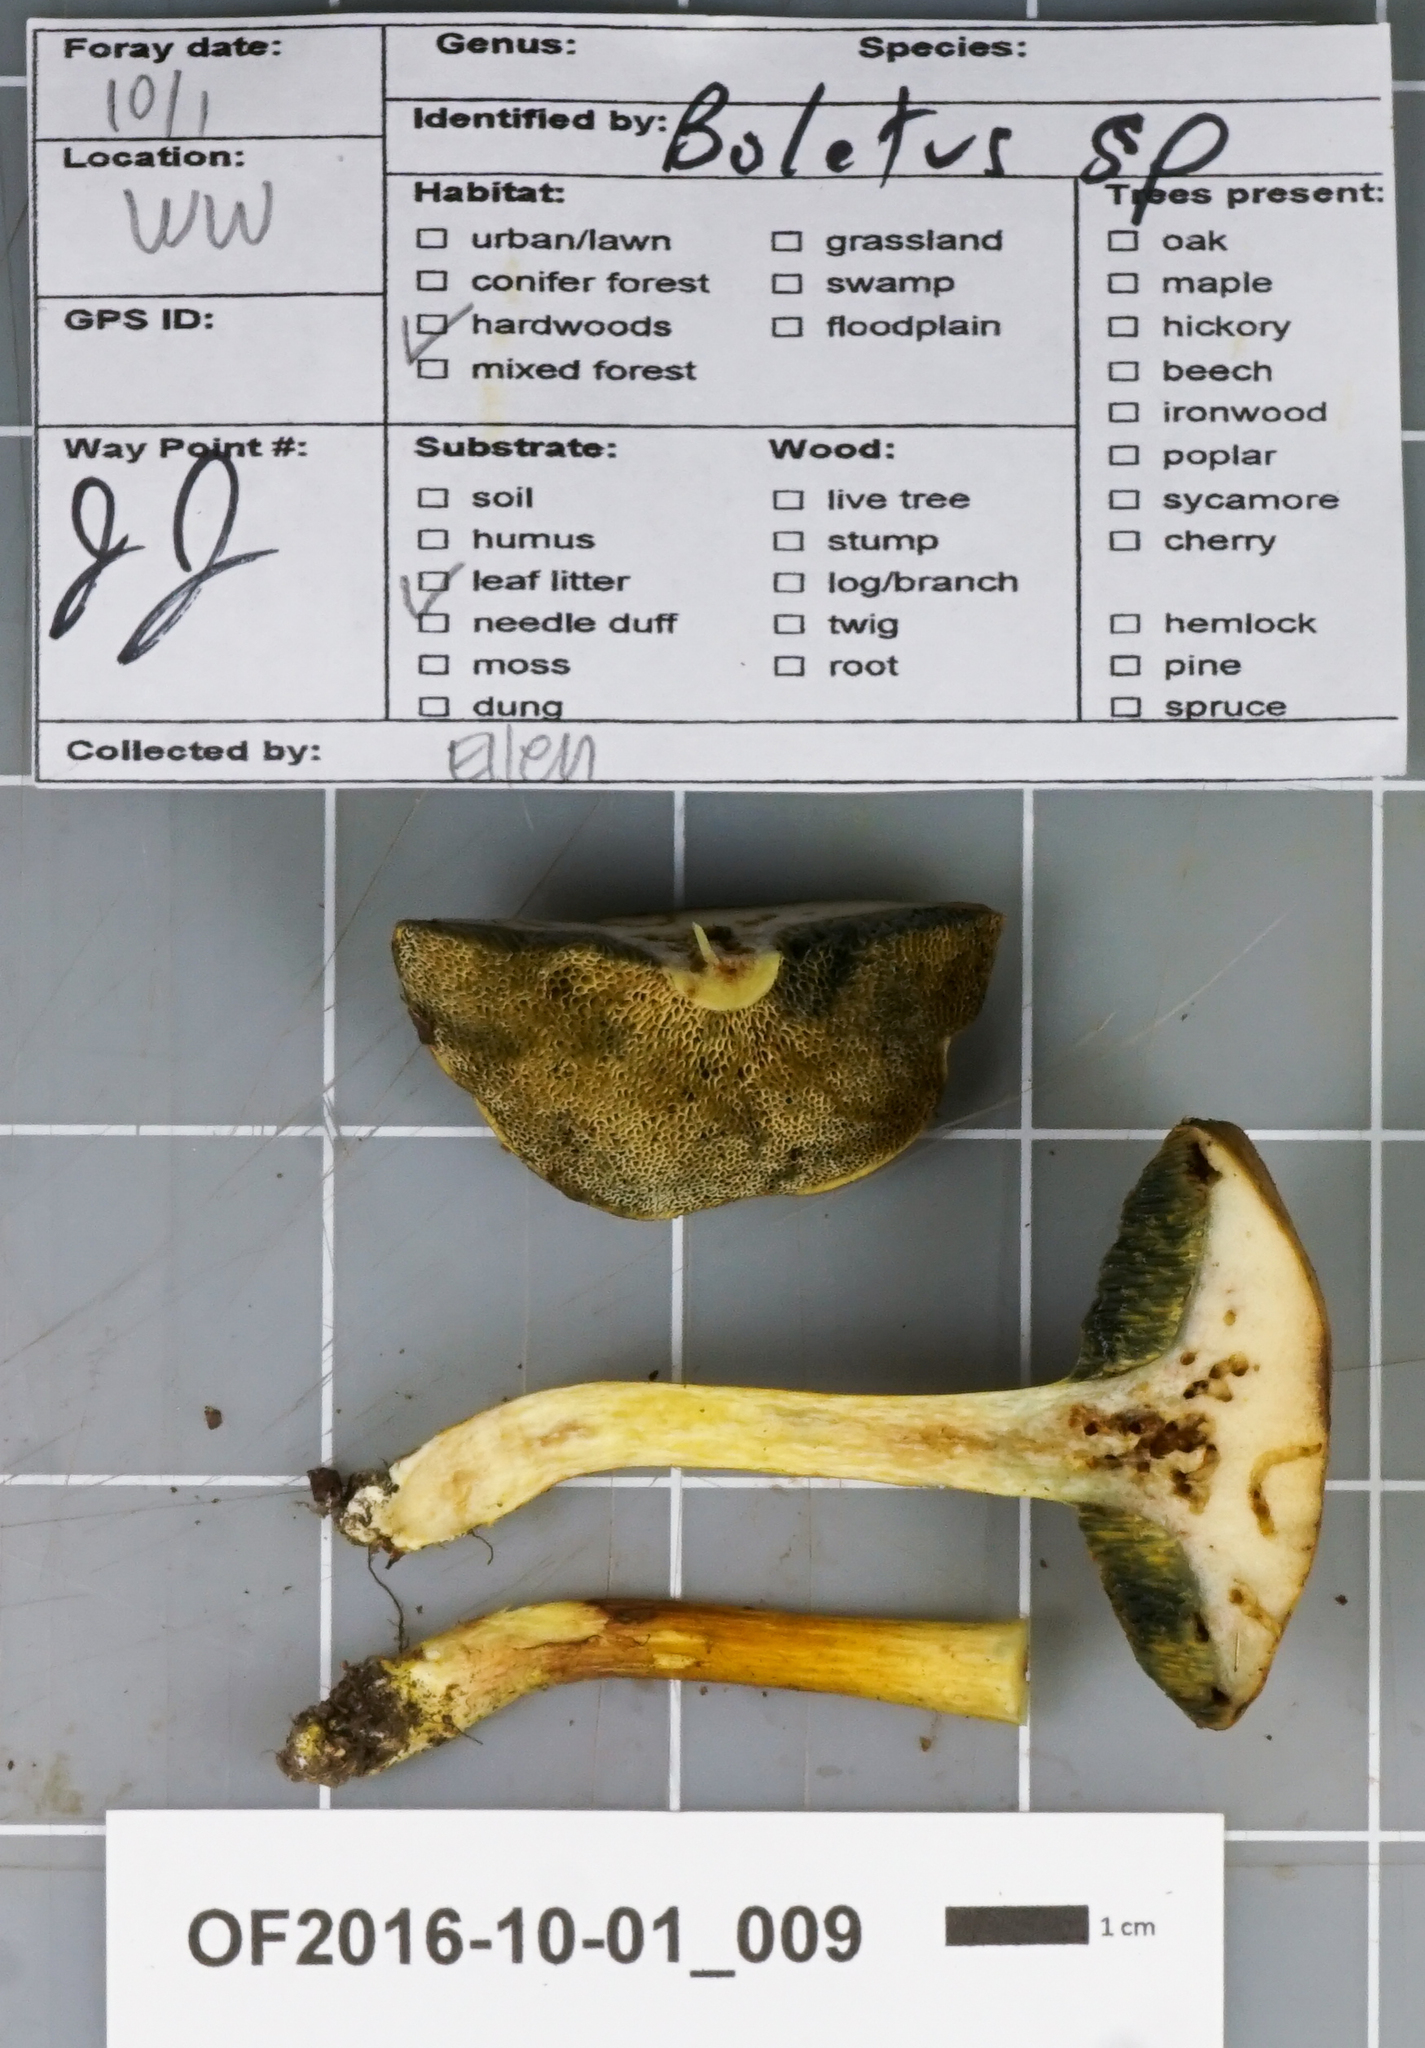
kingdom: Fungi
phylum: Basidiomycota
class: Agaricomycetes
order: Boletales
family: Boletaceae
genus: Xerocomus
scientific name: Xerocomus hypoxanthus
